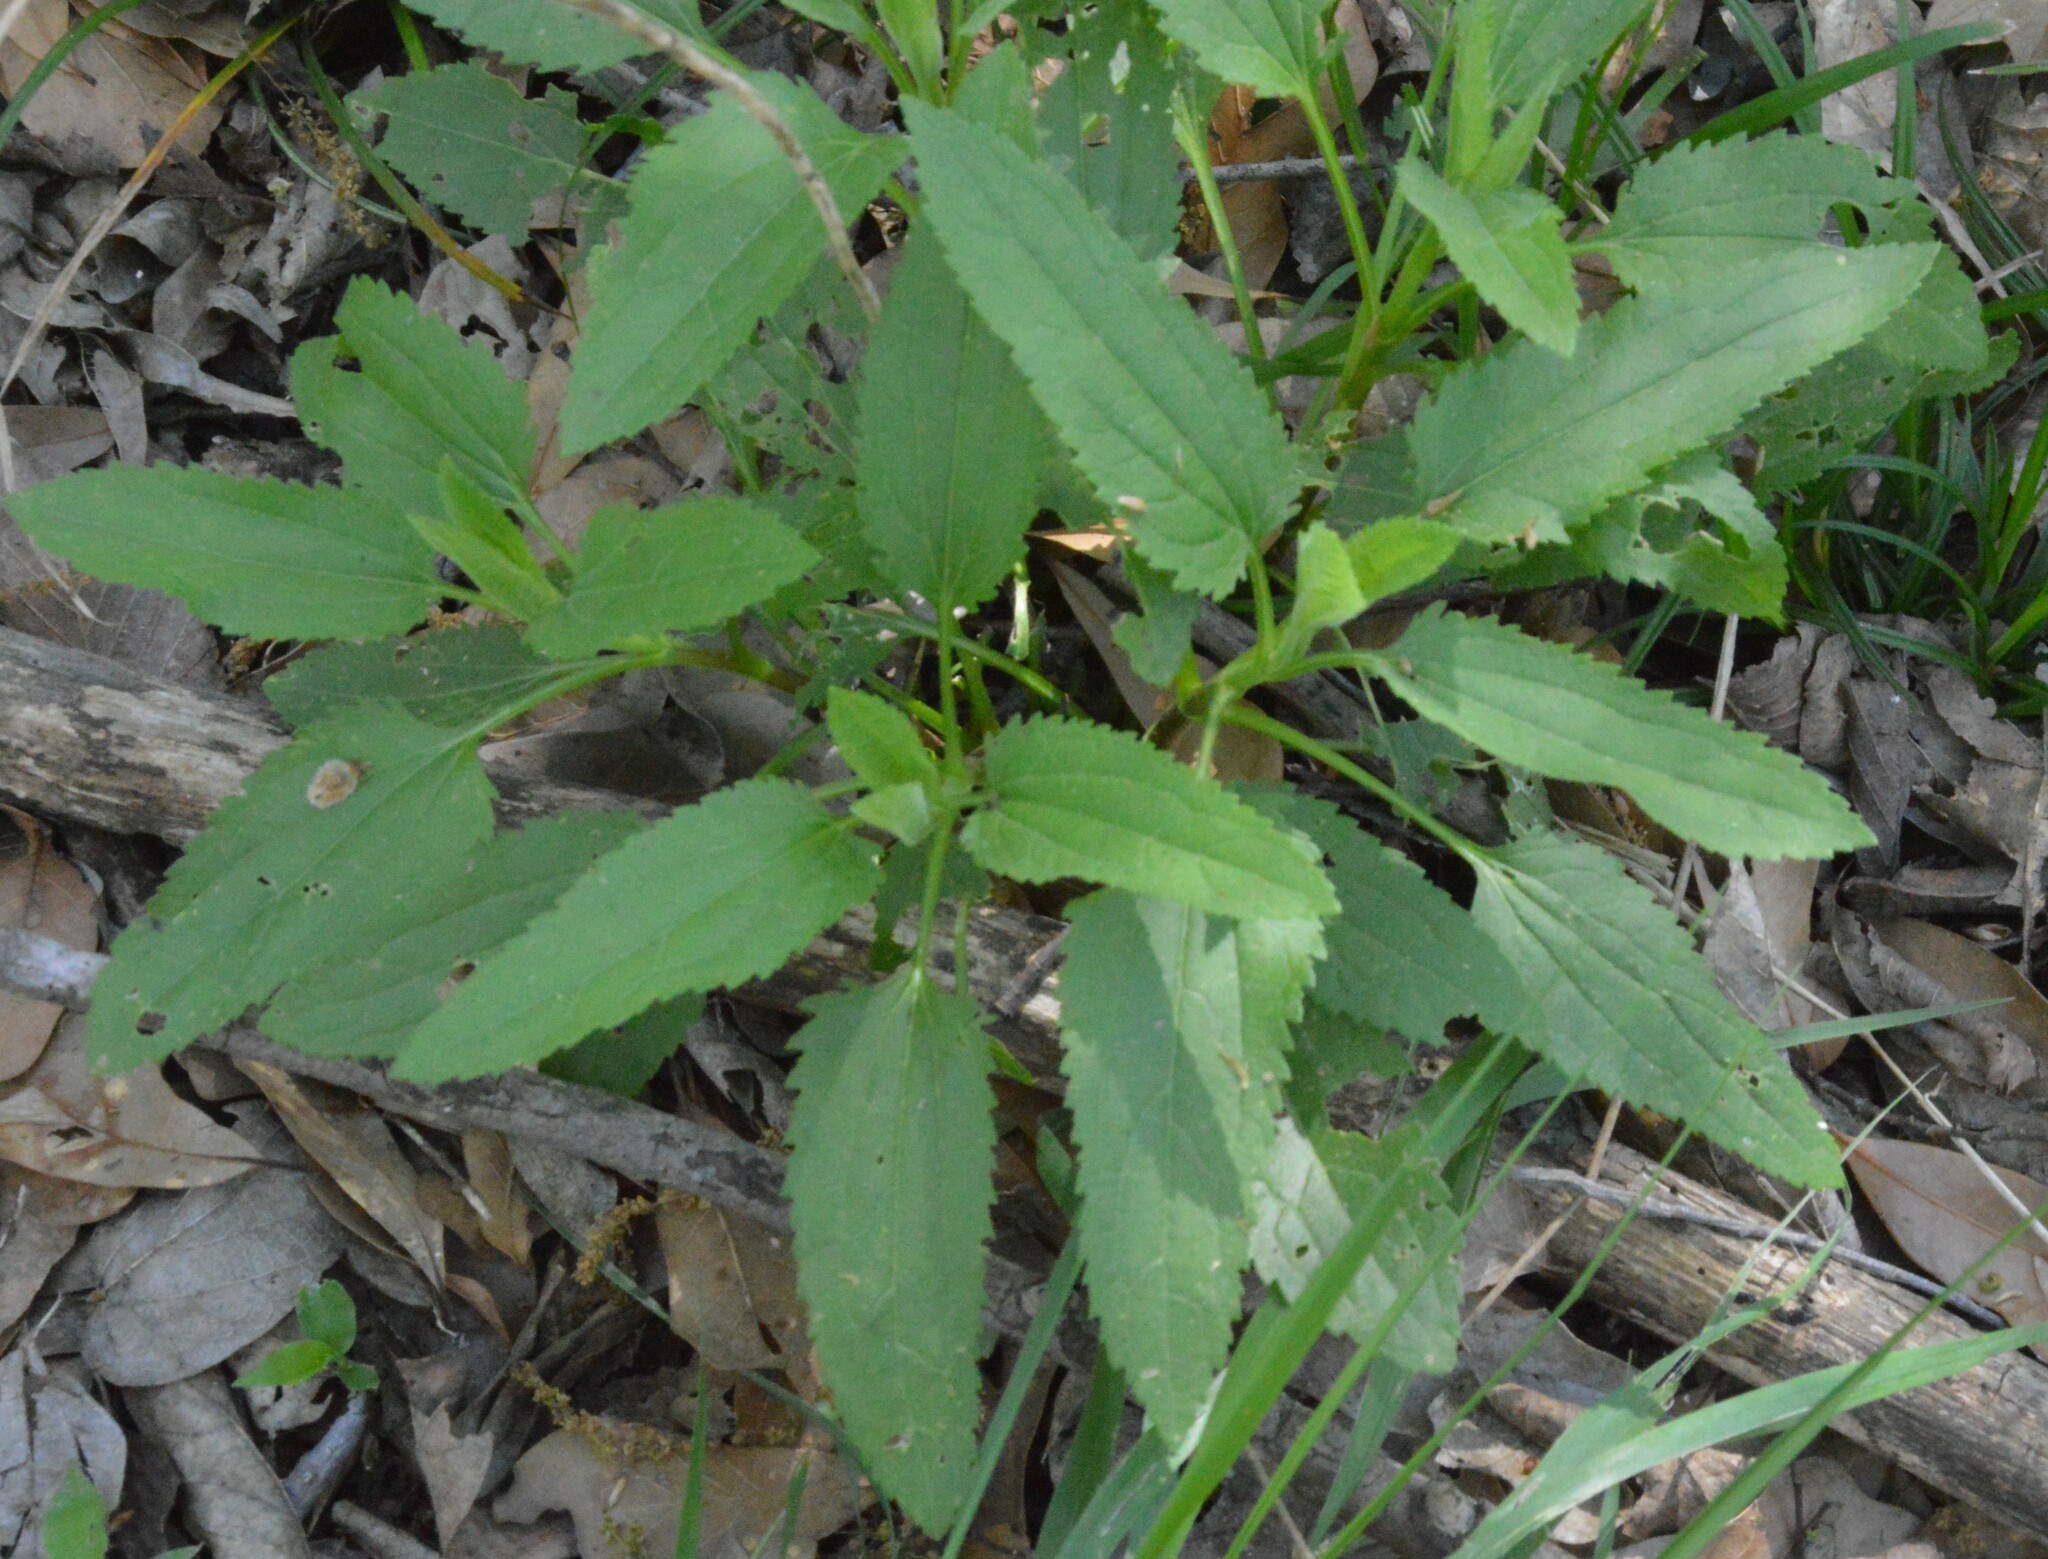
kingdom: Plantae
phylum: Tracheophyta
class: Magnoliopsida
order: Asterales
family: Asteraceae
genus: Eupatorium
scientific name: Eupatorium serotinum
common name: Late boneset
